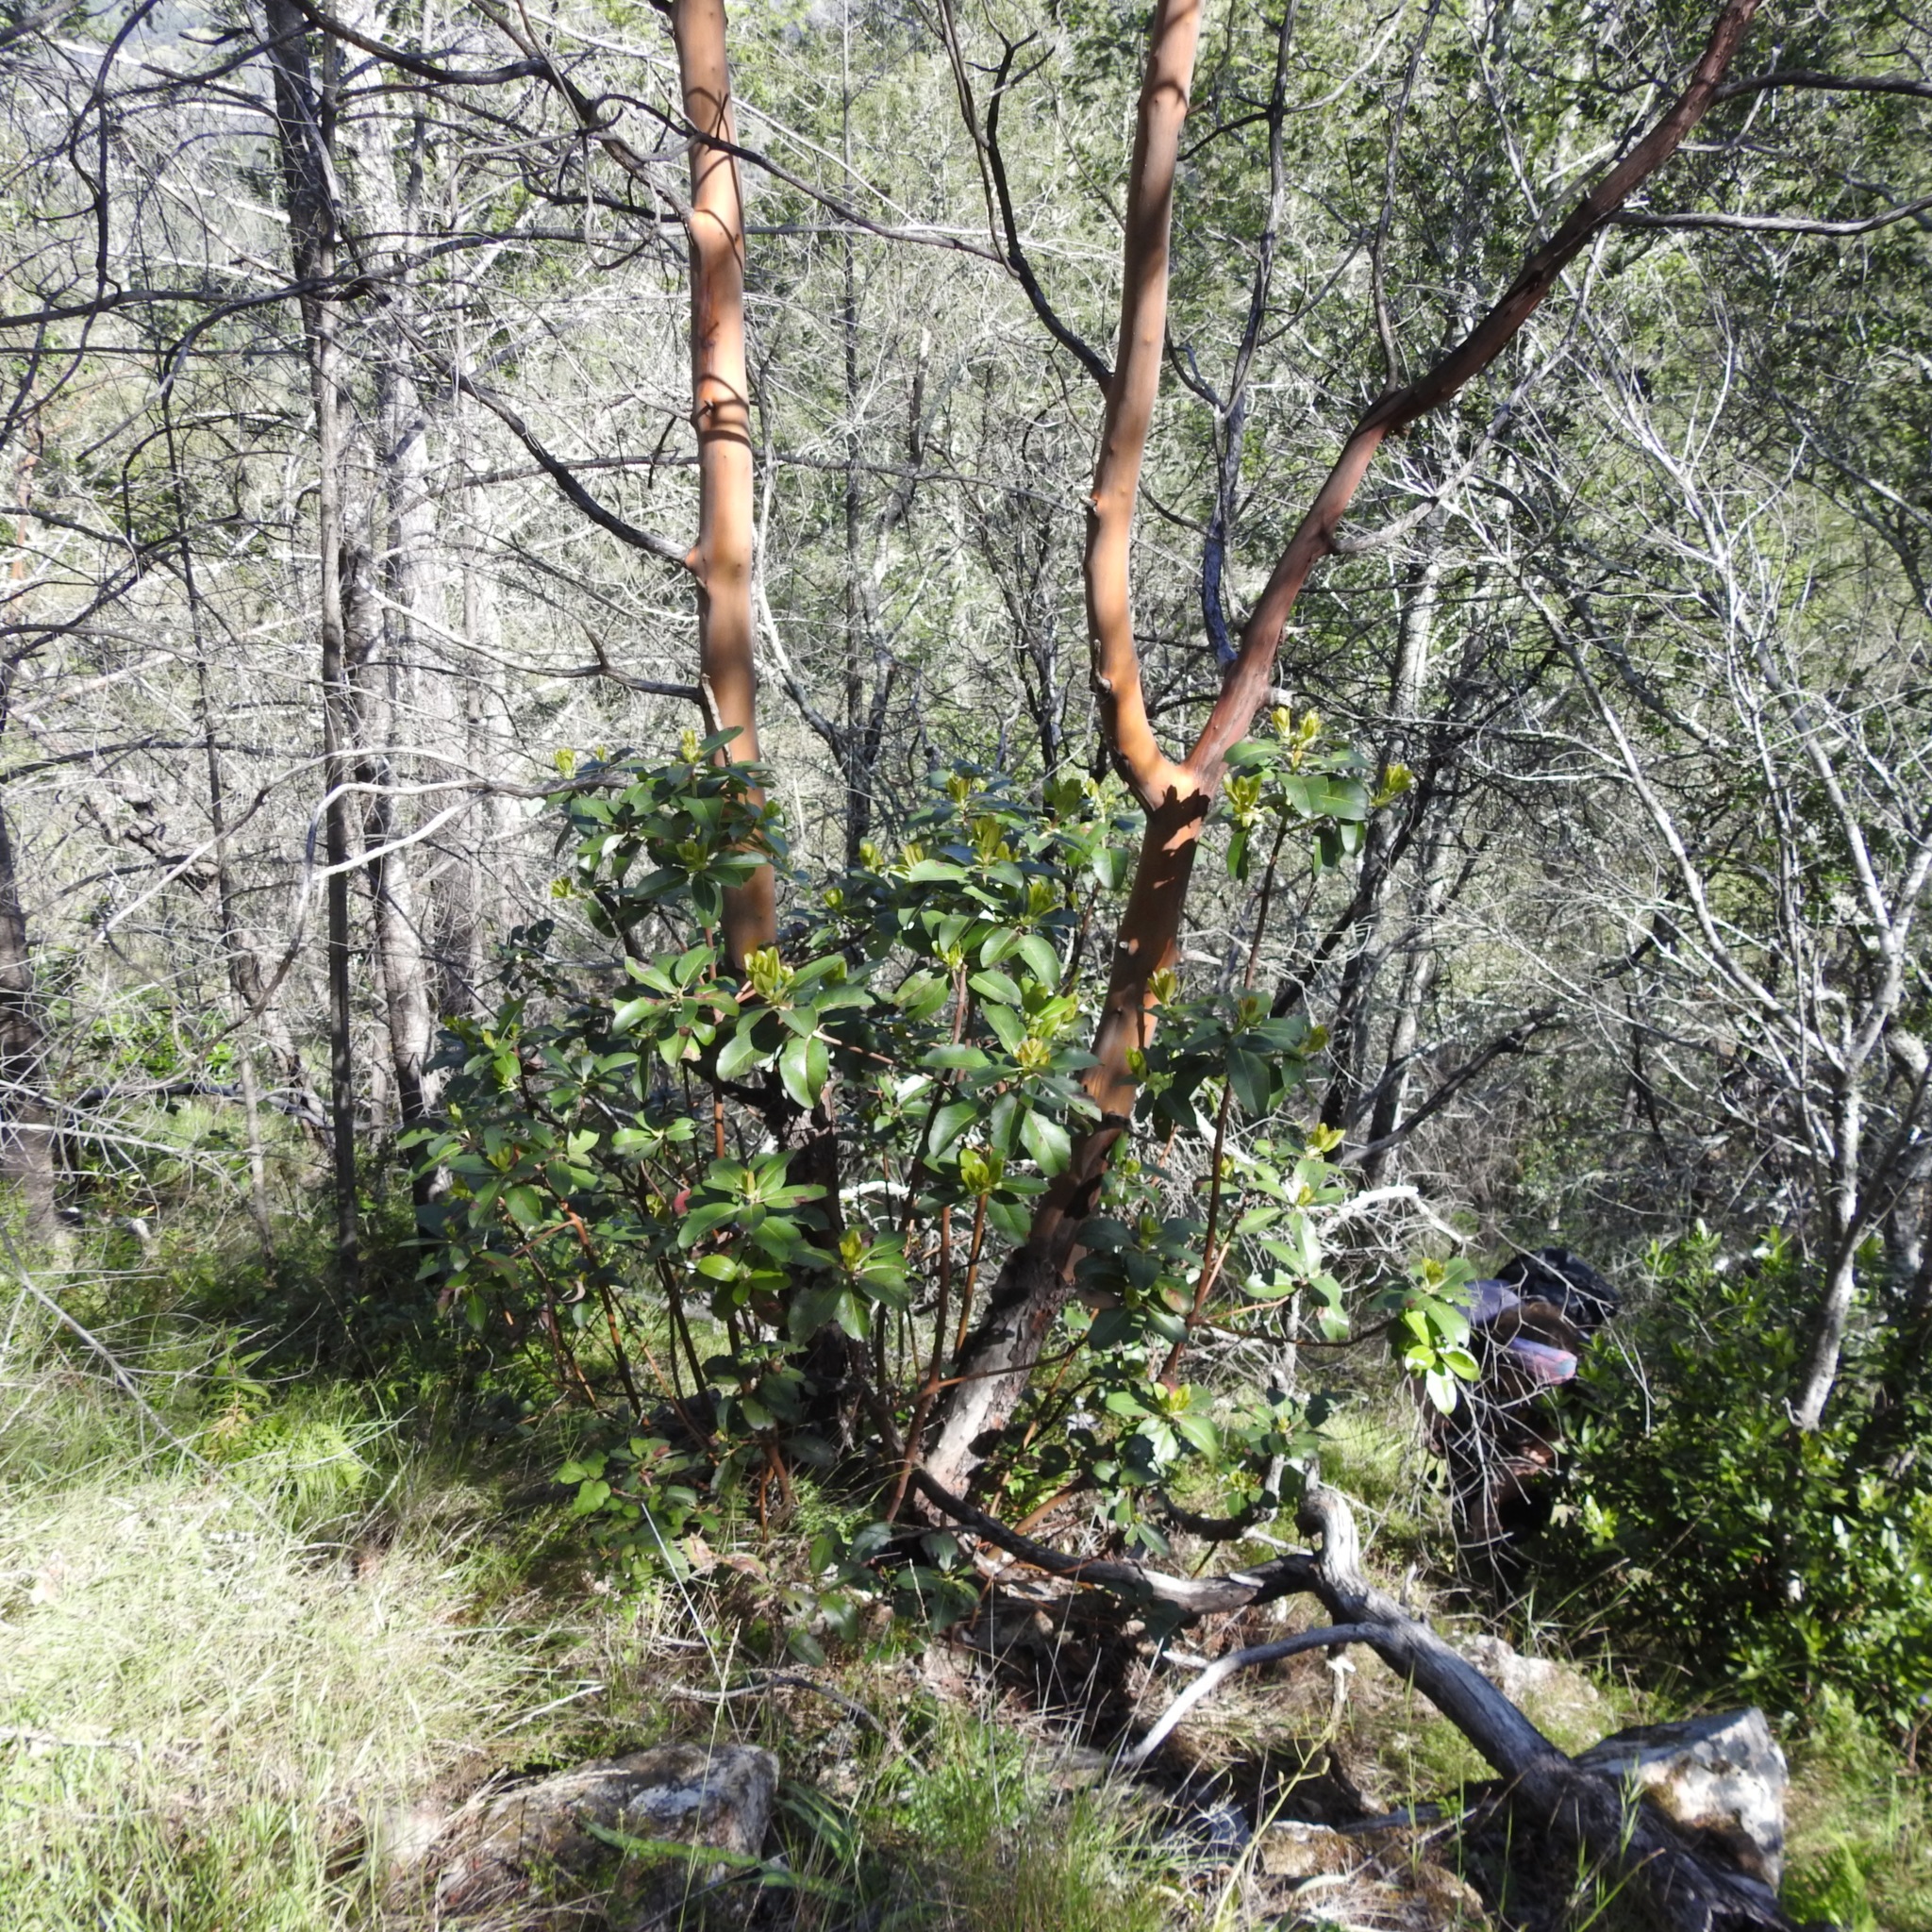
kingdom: Plantae
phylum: Tracheophyta
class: Magnoliopsida
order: Ericales
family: Ericaceae
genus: Arbutus
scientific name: Arbutus menziesii
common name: Pacific madrone
